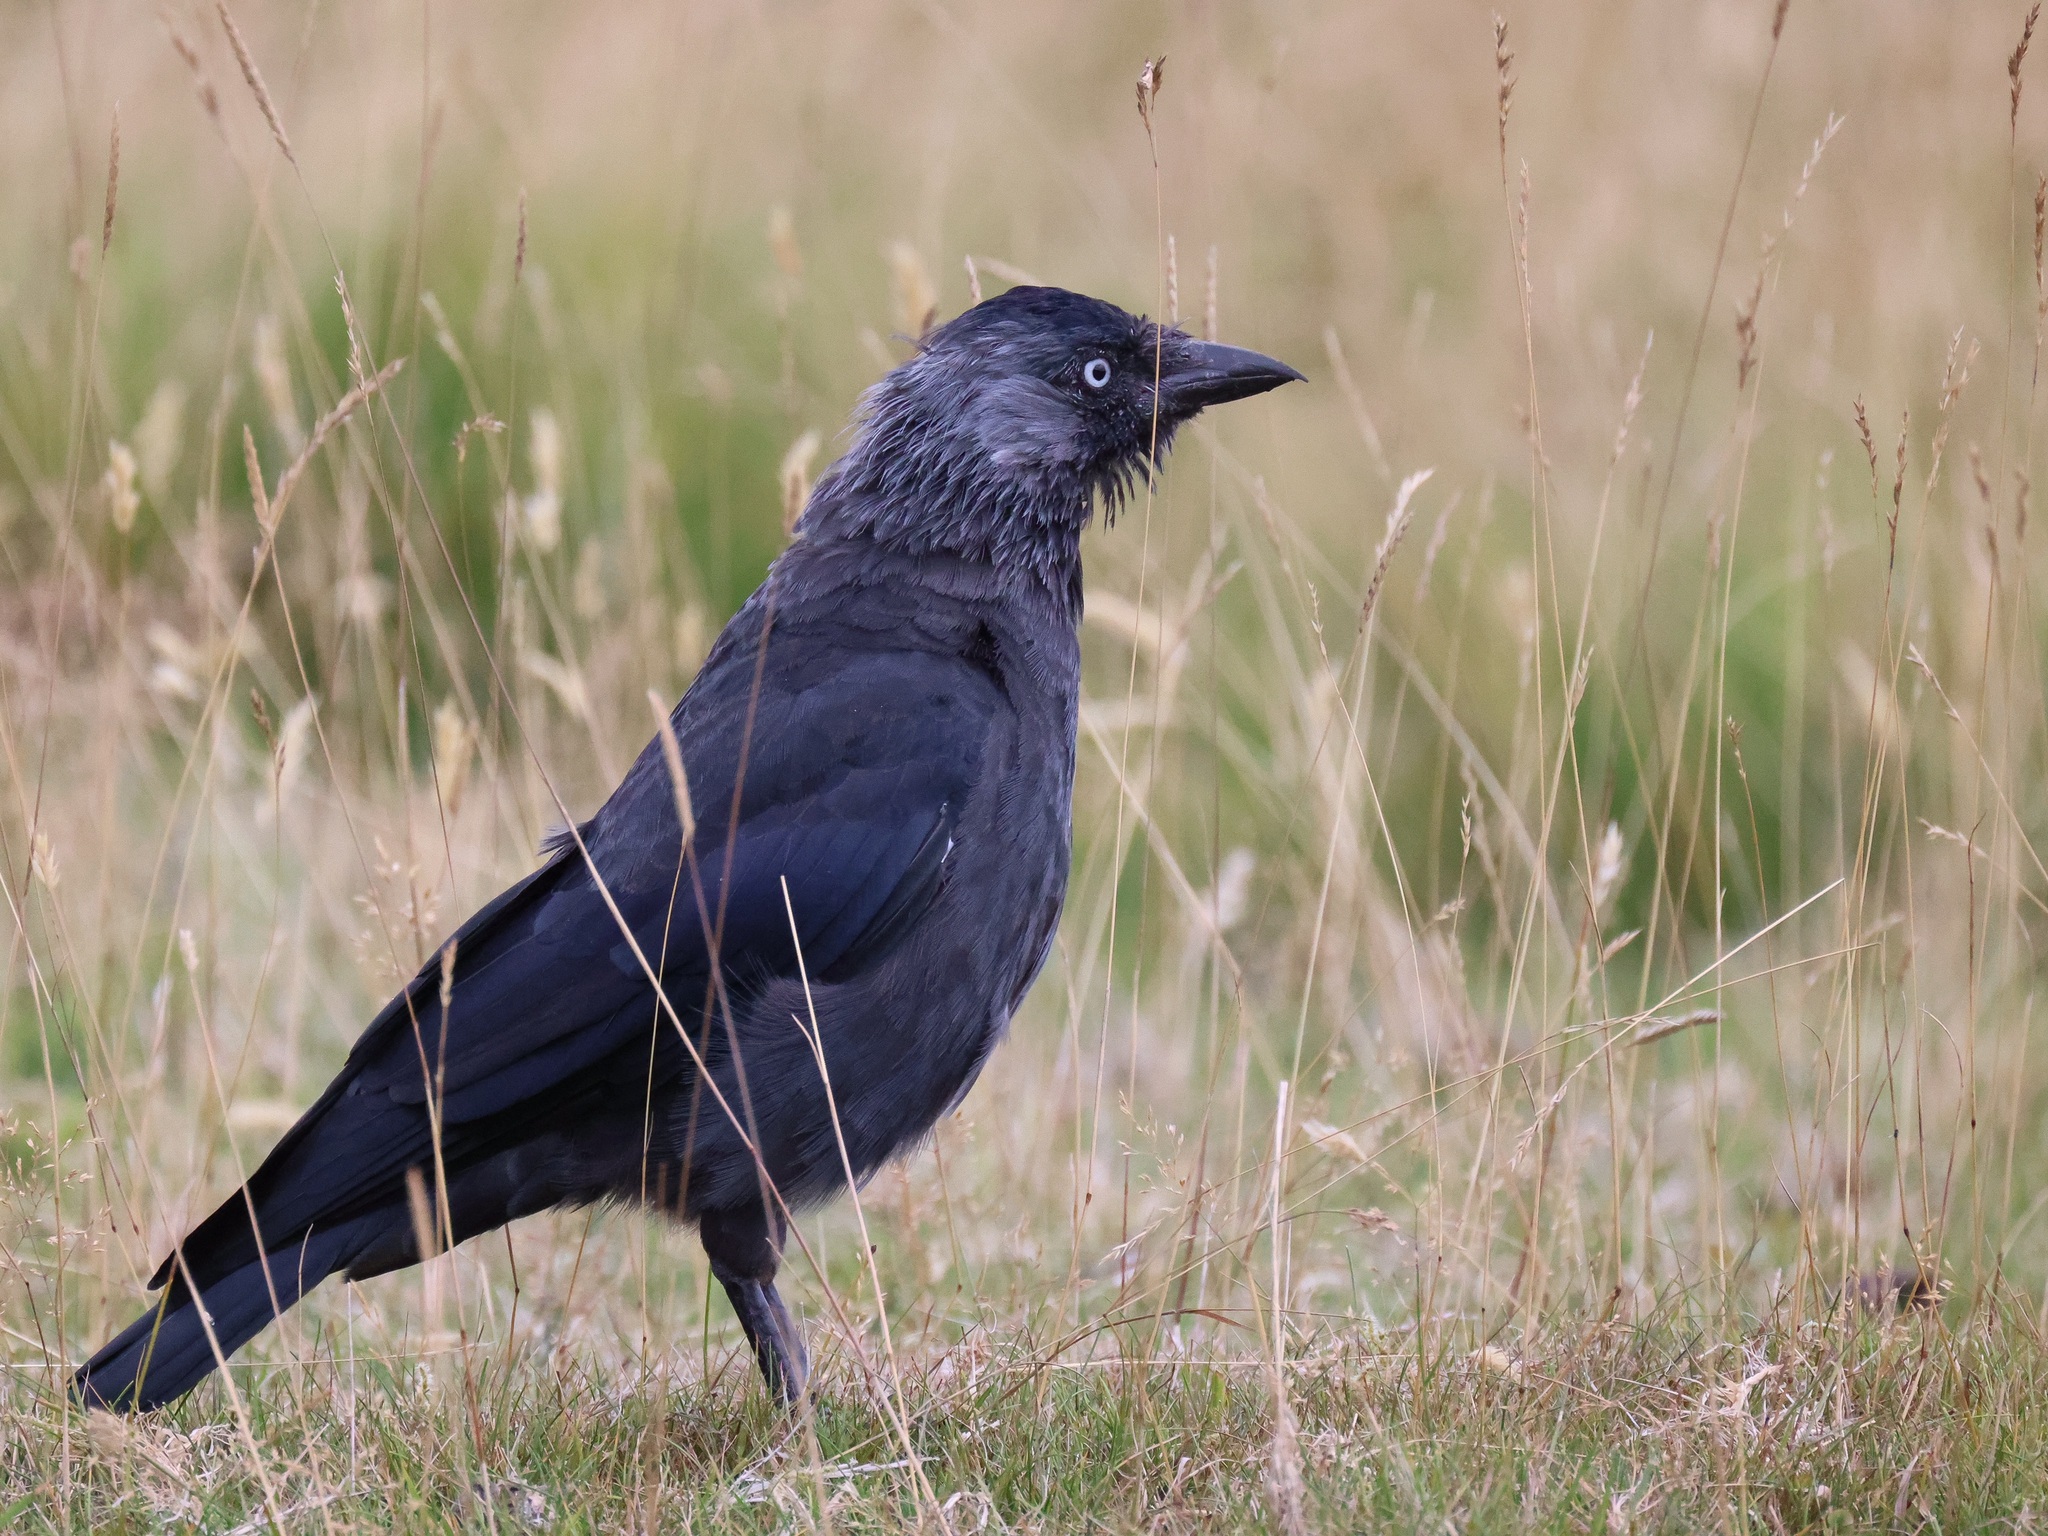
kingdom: Animalia
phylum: Chordata
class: Aves
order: Passeriformes
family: Corvidae
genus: Coloeus
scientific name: Coloeus monedula
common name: Western jackdaw
